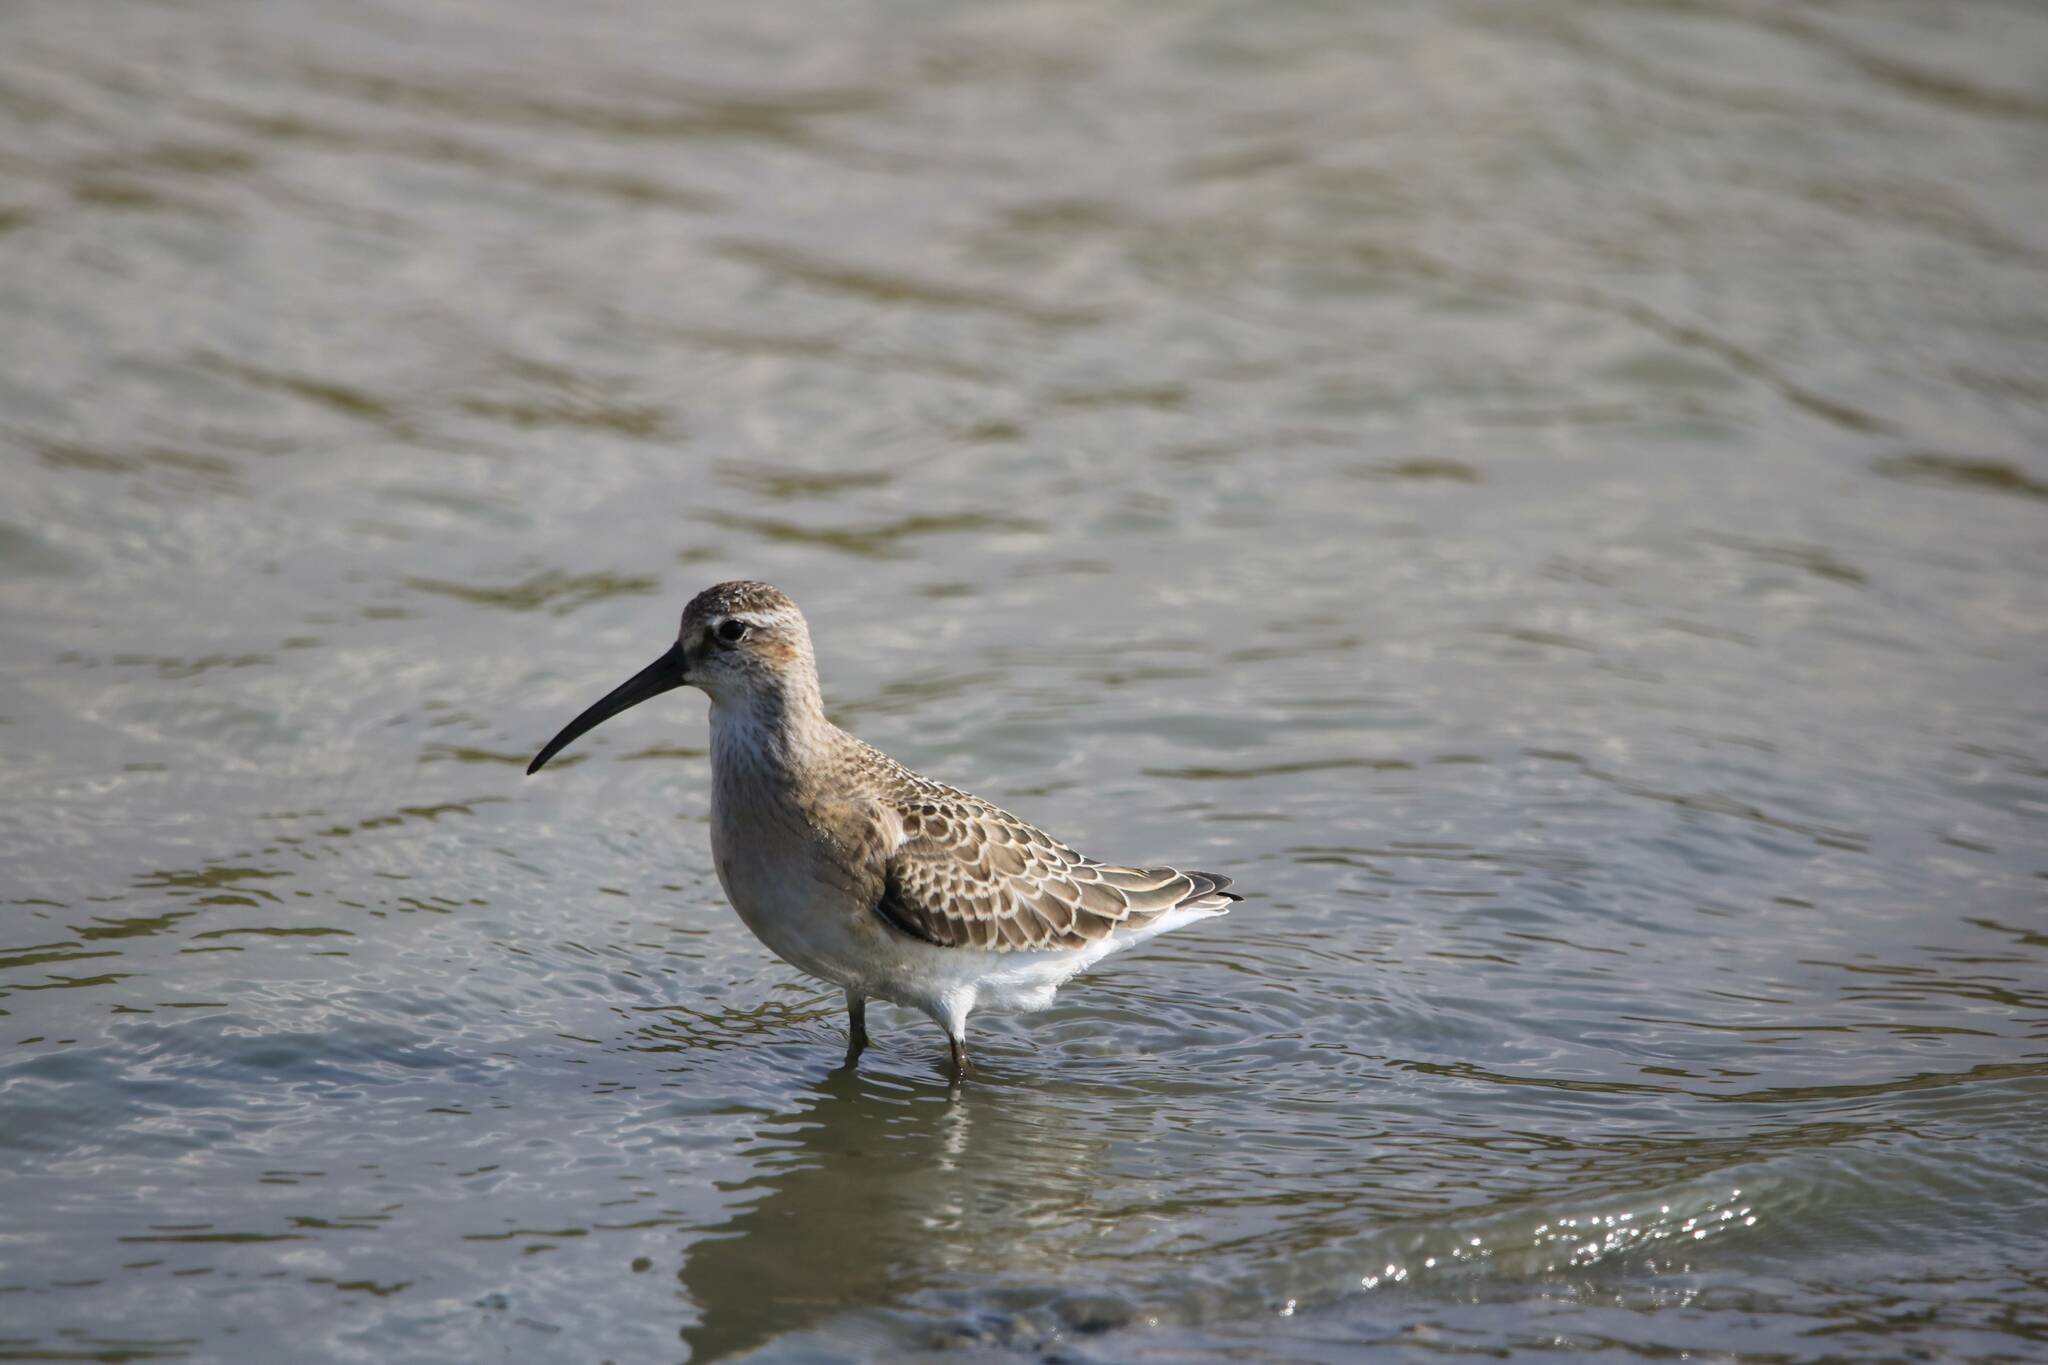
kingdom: Animalia
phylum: Chordata
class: Aves
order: Charadriiformes
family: Scolopacidae
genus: Calidris
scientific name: Calidris ferruginea
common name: Curlew sandpiper
